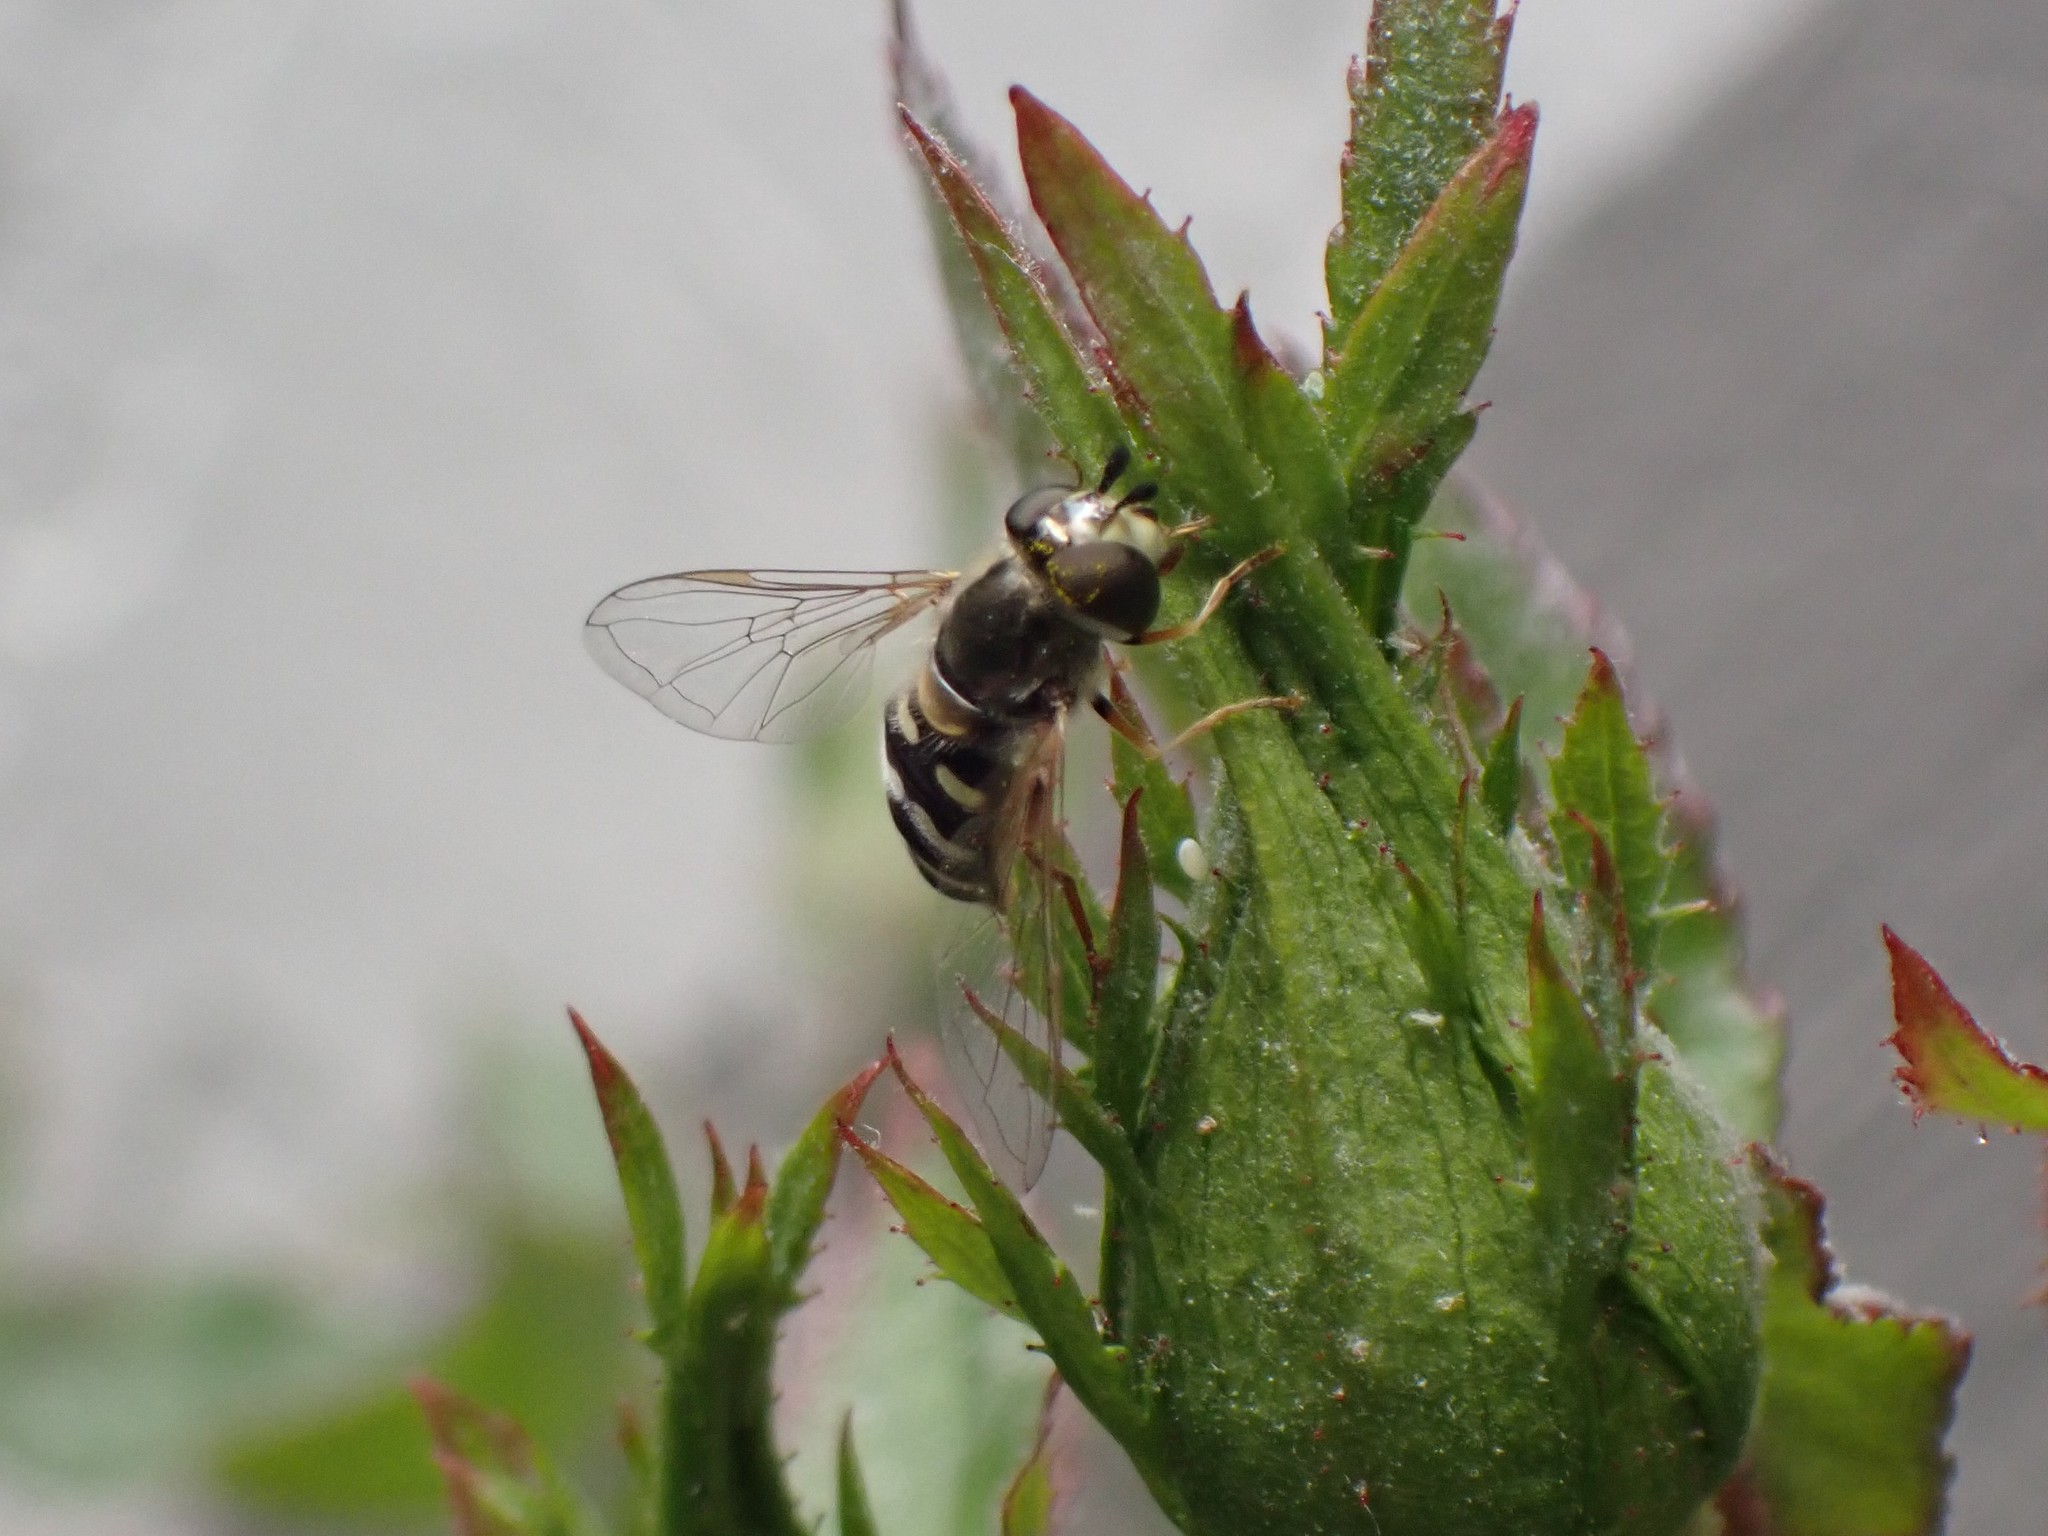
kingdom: Animalia
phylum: Arthropoda
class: Insecta
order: Diptera
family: Syrphidae
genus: Eupeodes
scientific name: Eupeodes volucris
